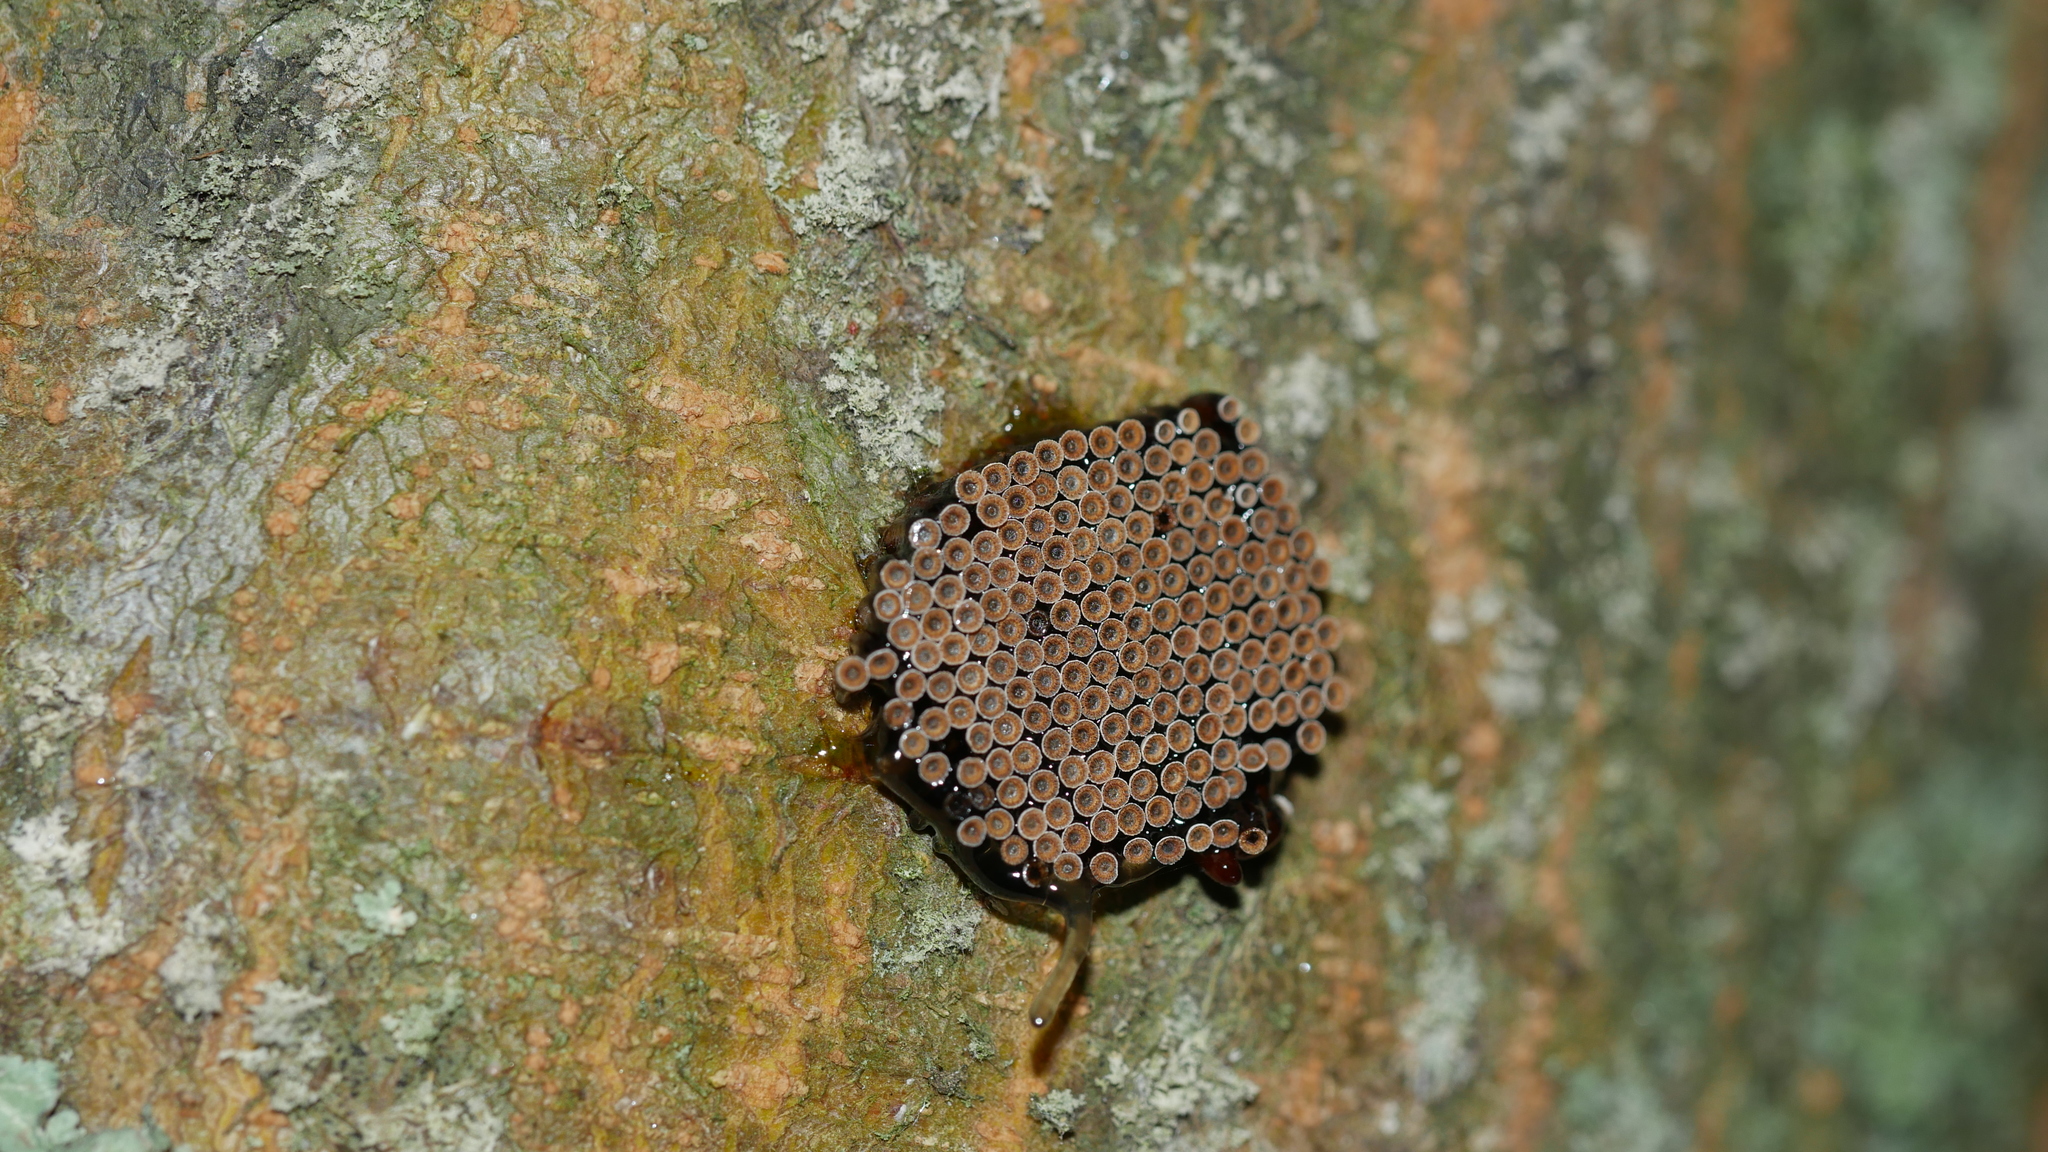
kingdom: Animalia
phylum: Arthropoda
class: Insecta
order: Hemiptera
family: Reduviidae
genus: Arilus
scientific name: Arilus cristatus
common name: North american wheel bug
